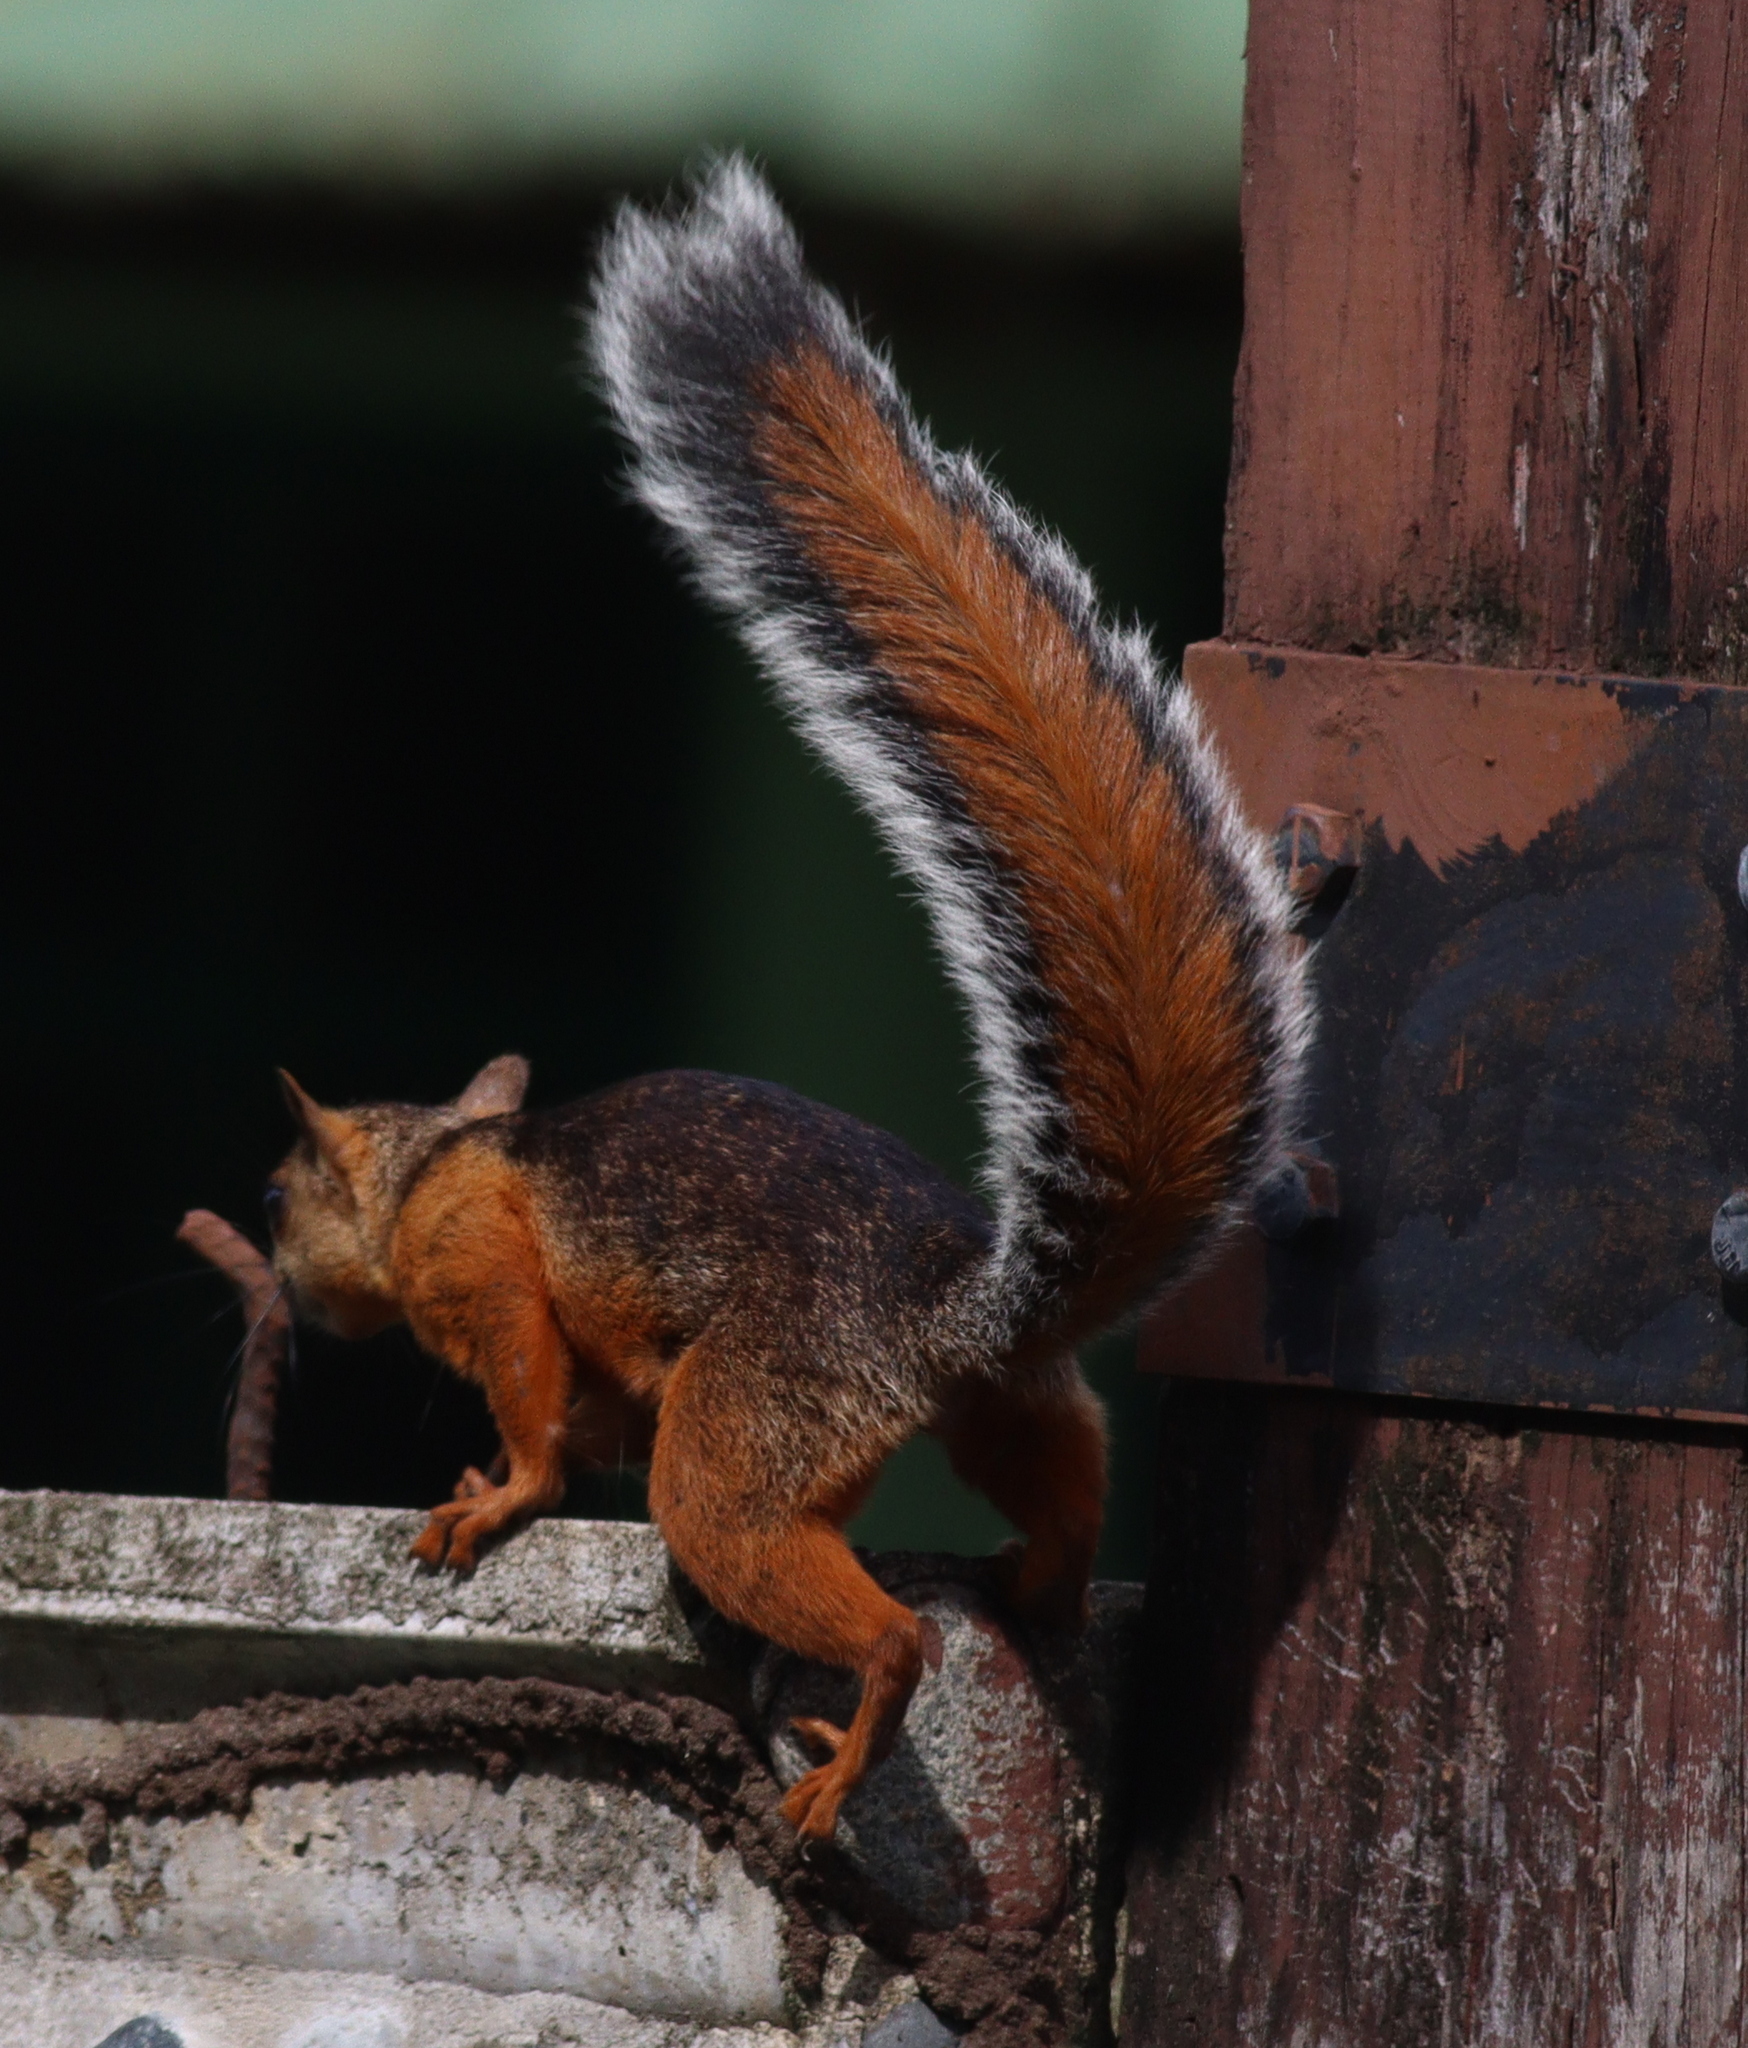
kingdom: Animalia
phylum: Chordata
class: Mammalia
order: Rodentia
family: Sciuridae
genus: Sciurus
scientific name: Sciurus variegatoides
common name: Variegated squirrel
